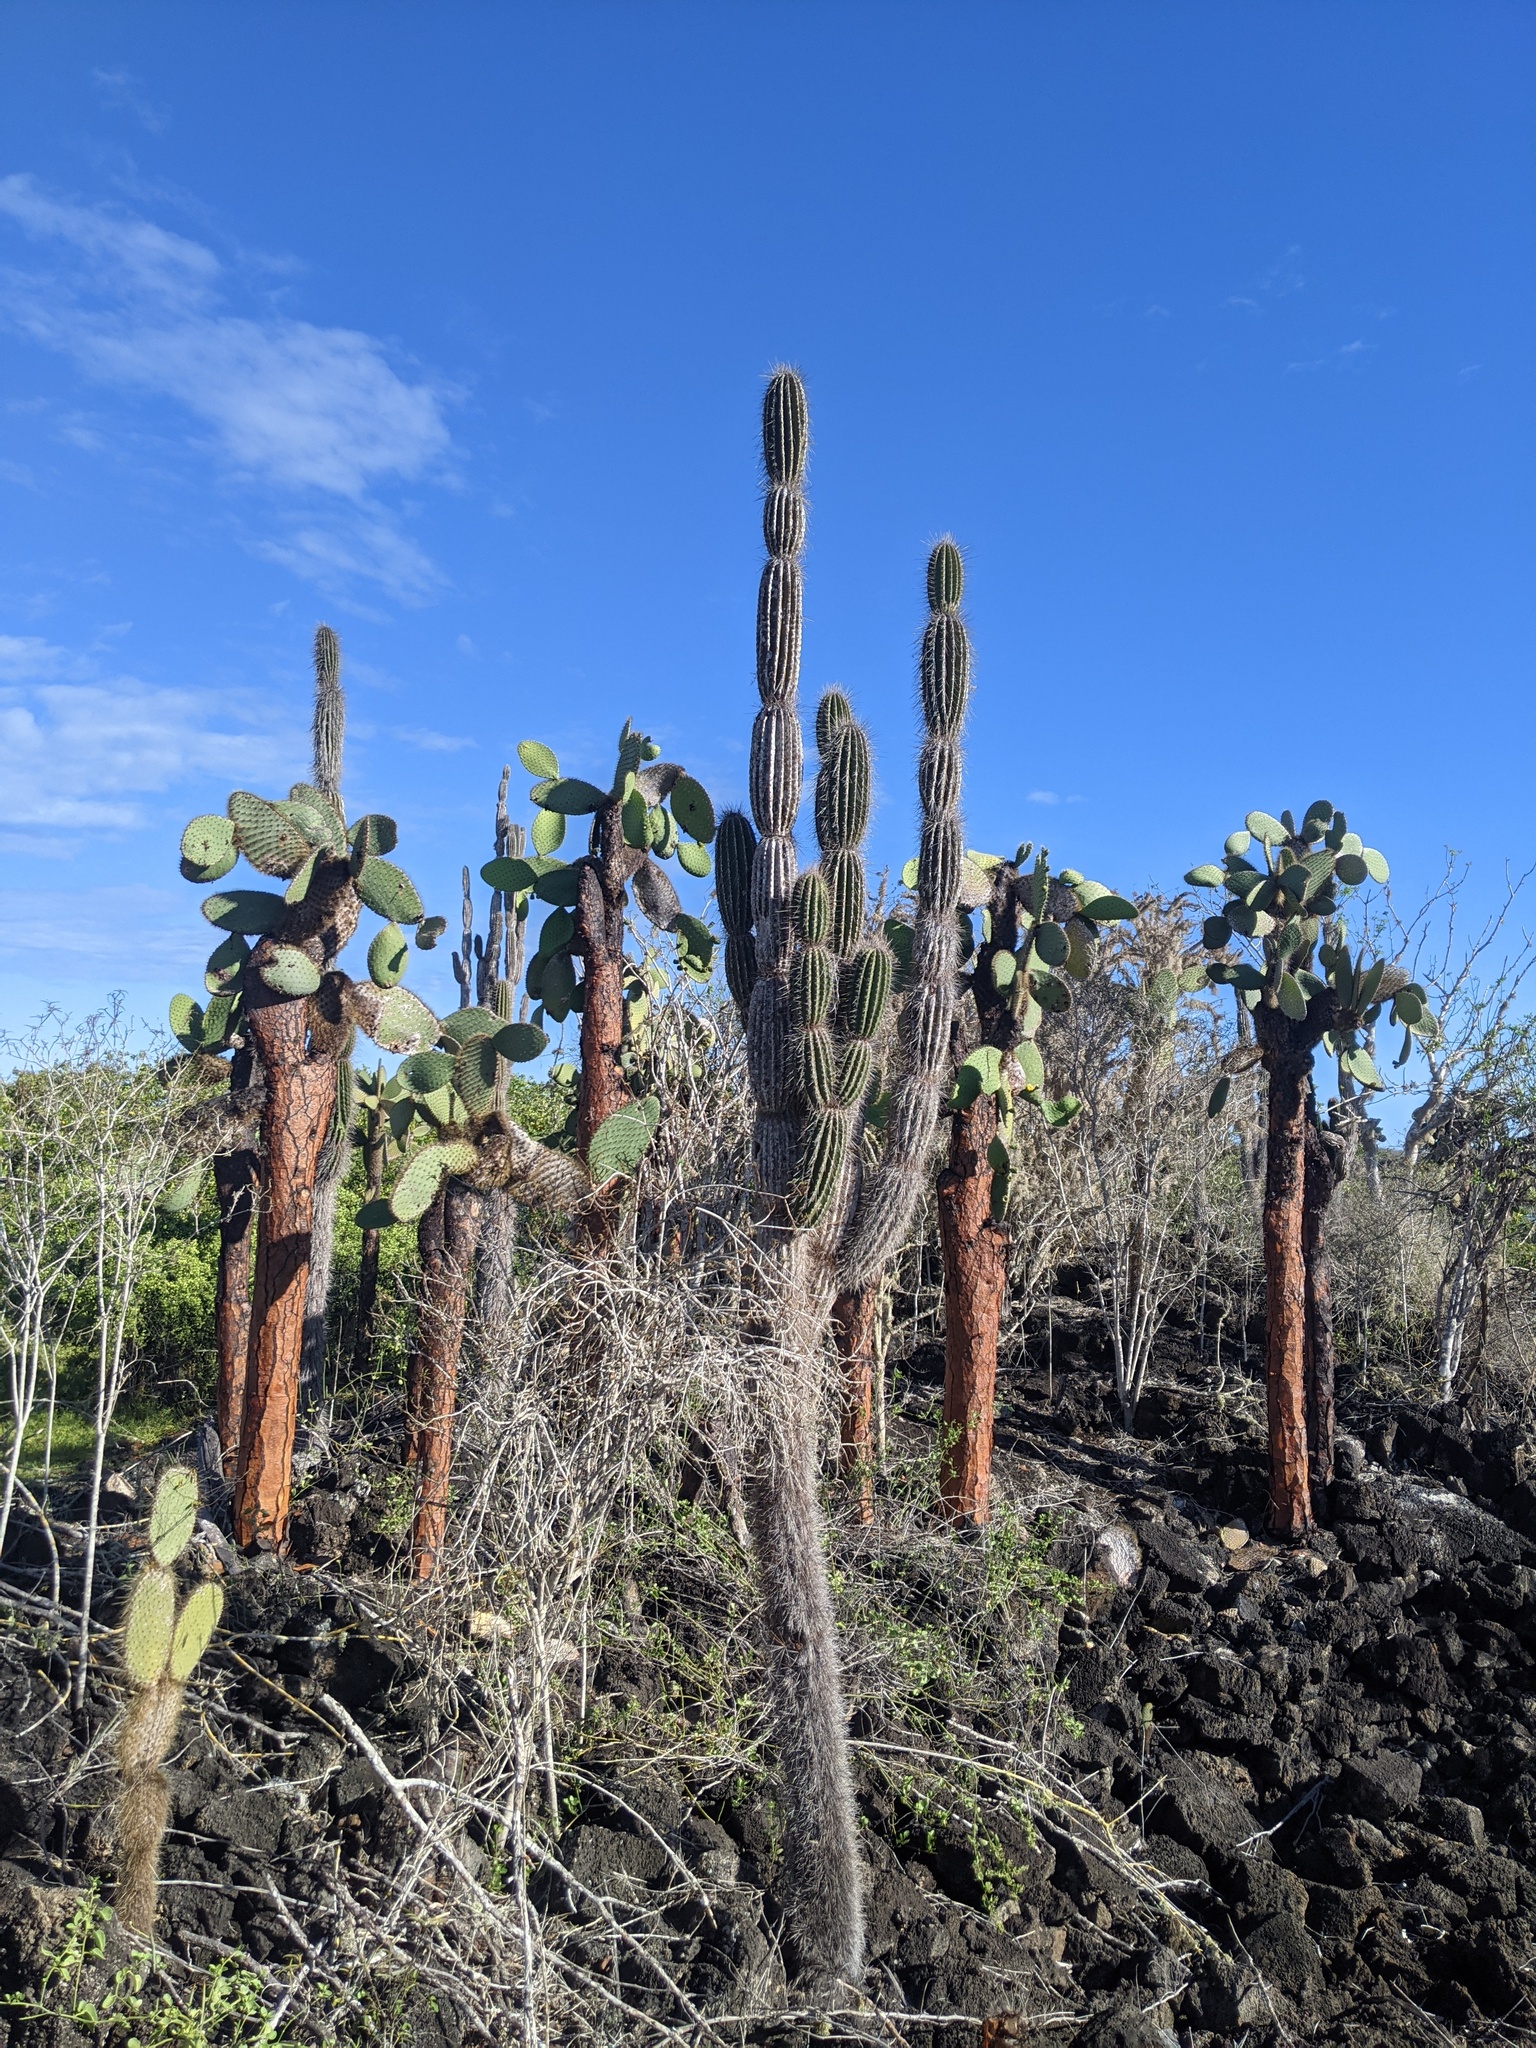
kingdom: Plantae
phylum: Tracheophyta
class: Magnoliopsida
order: Caryophyllales
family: Cactaceae
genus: Jasminocereus
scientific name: Jasminocereus thouarsii
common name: Candelabra cactus
